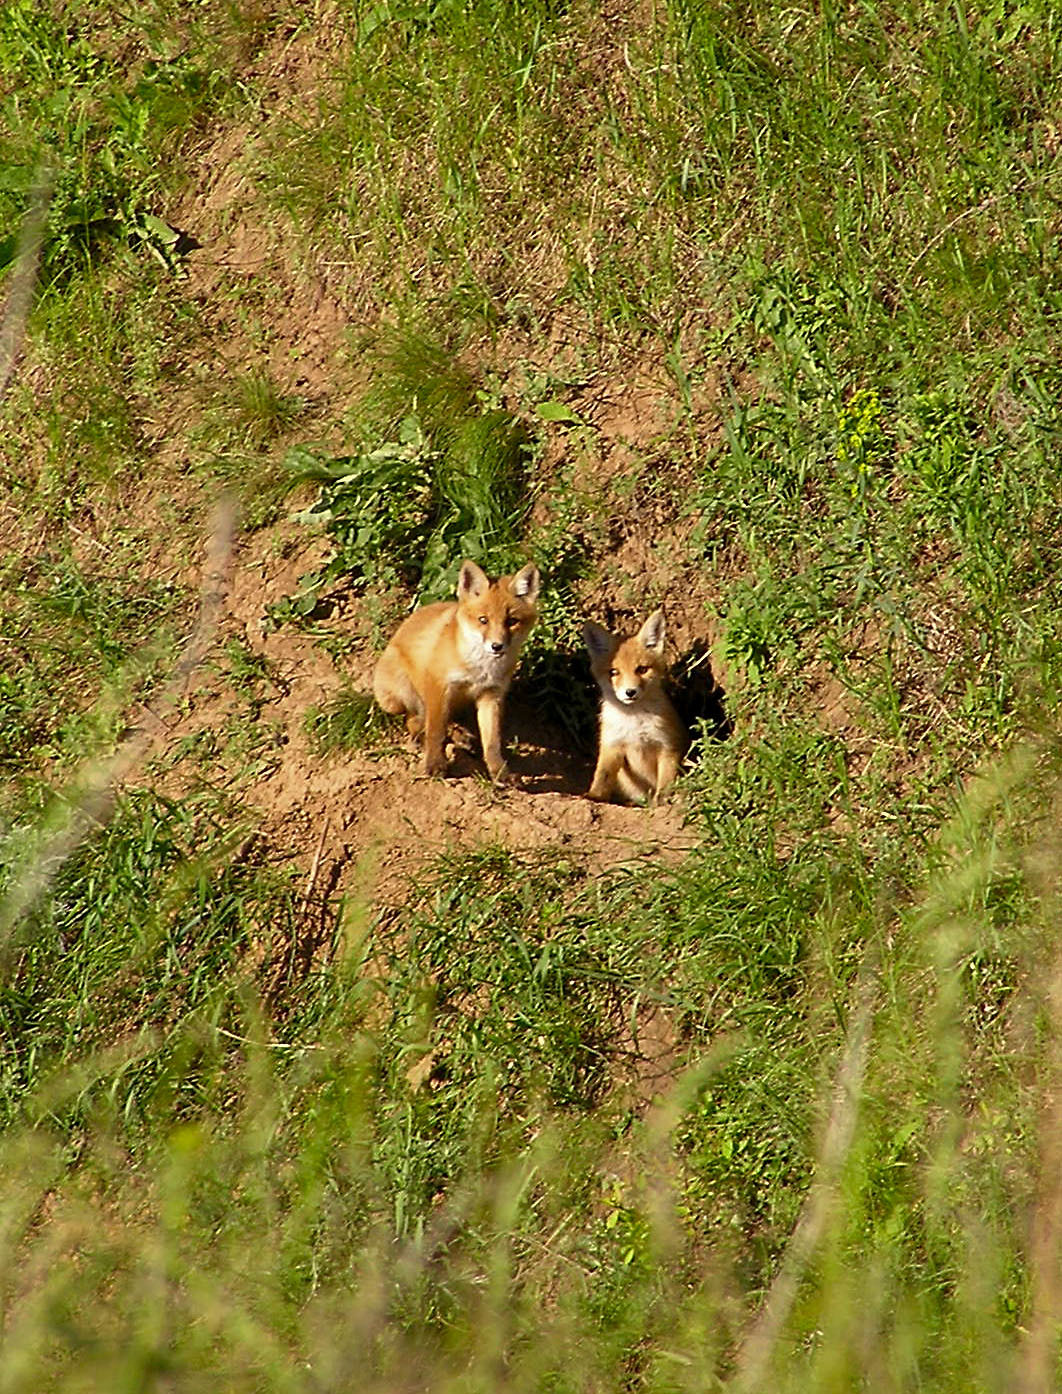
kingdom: Animalia
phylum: Chordata
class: Mammalia
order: Carnivora
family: Canidae
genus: Vulpes
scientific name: Vulpes vulpes
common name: Red fox
